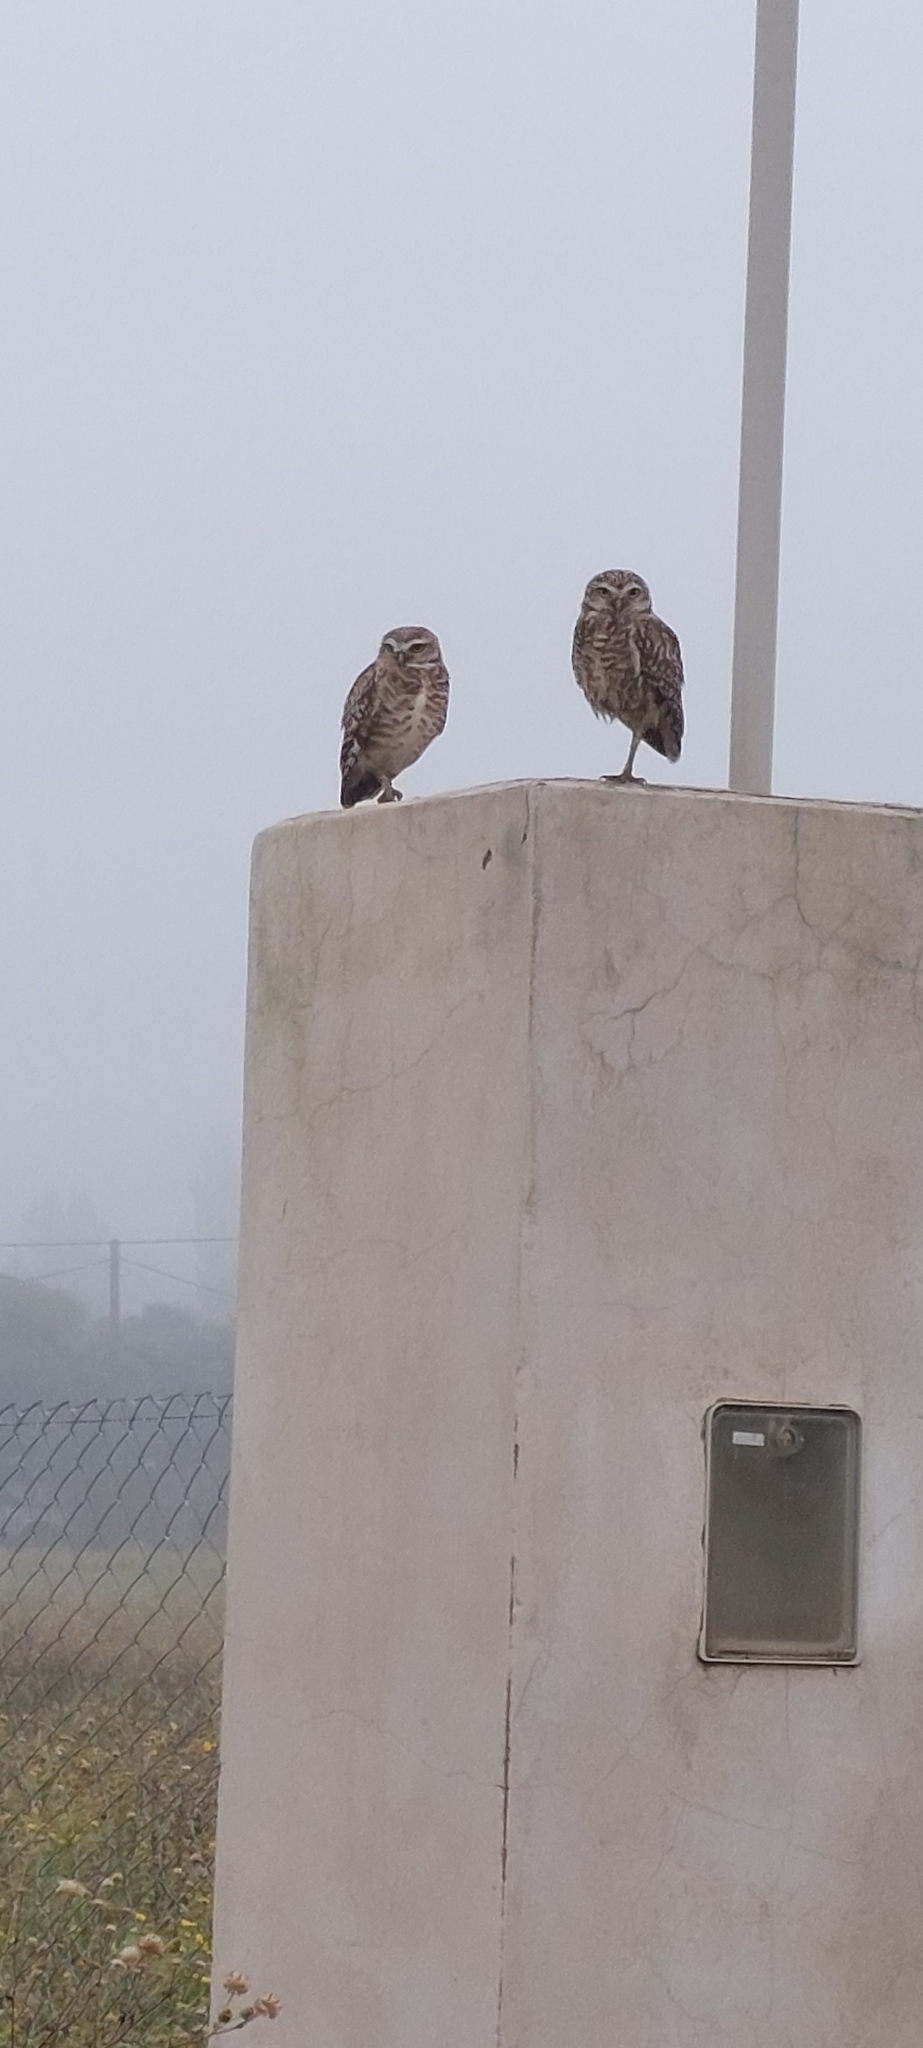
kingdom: Animalia
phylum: Chordata
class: Aves
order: Strigiformes
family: Strigidae
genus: Athene
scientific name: Athene cunicularia
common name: Burrowing owl
